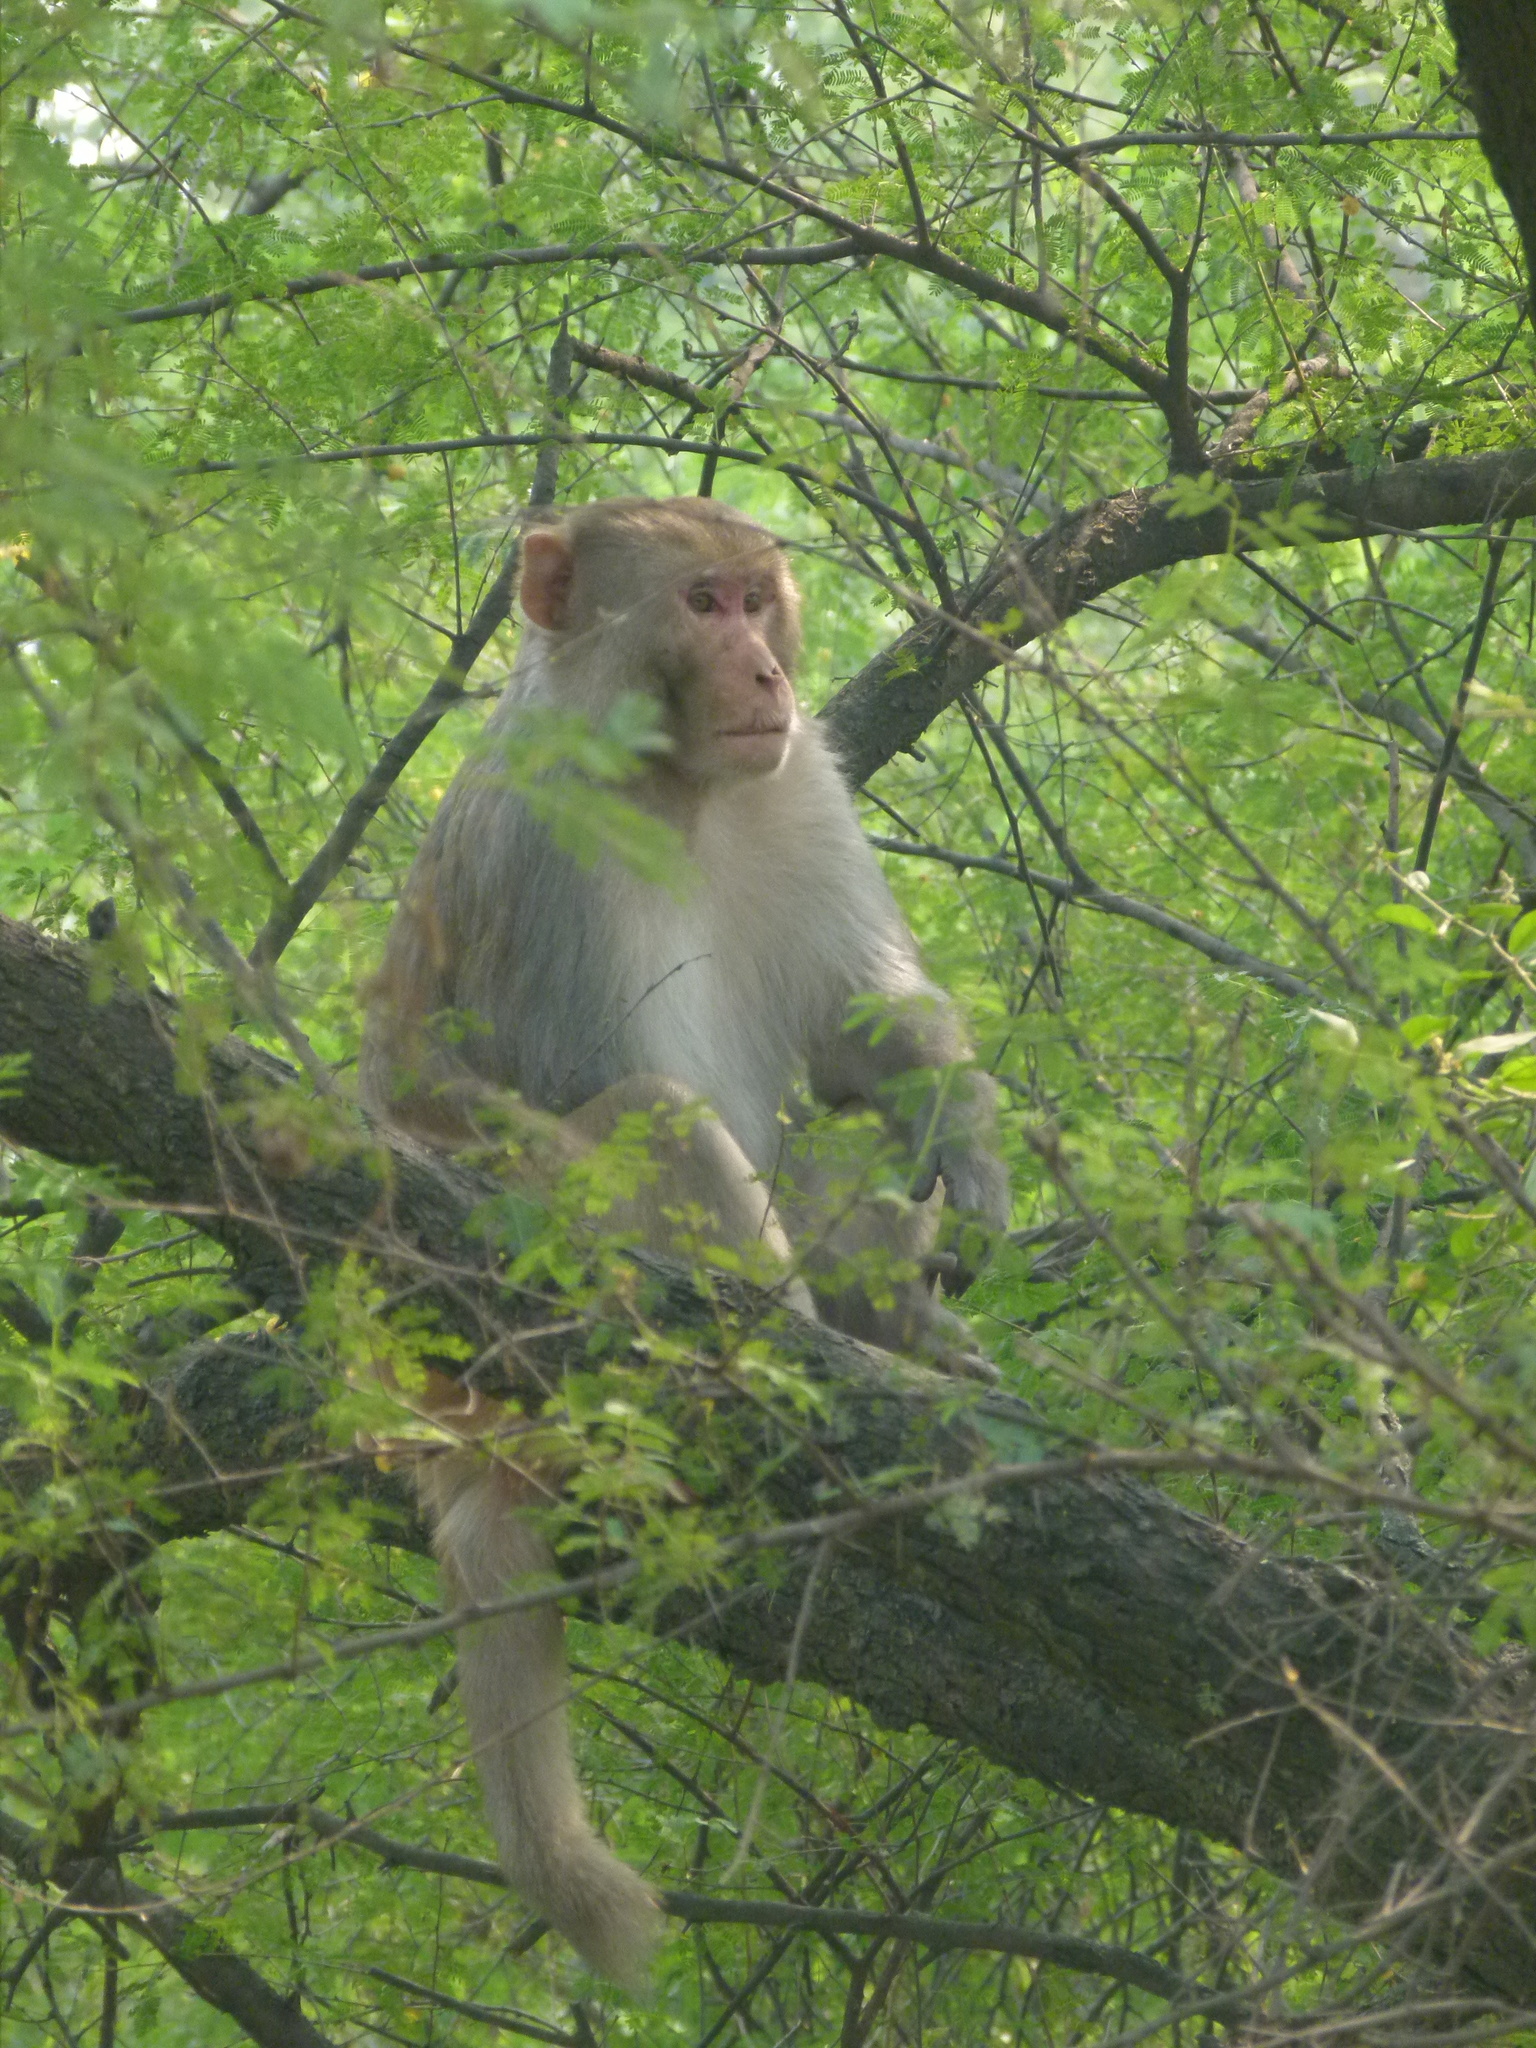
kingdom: Animalia
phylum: Chordata
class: Mammalia
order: Primates
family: Cercopithecidae
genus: Macaca
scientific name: Macaca mulatta
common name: Rhesus monkey
